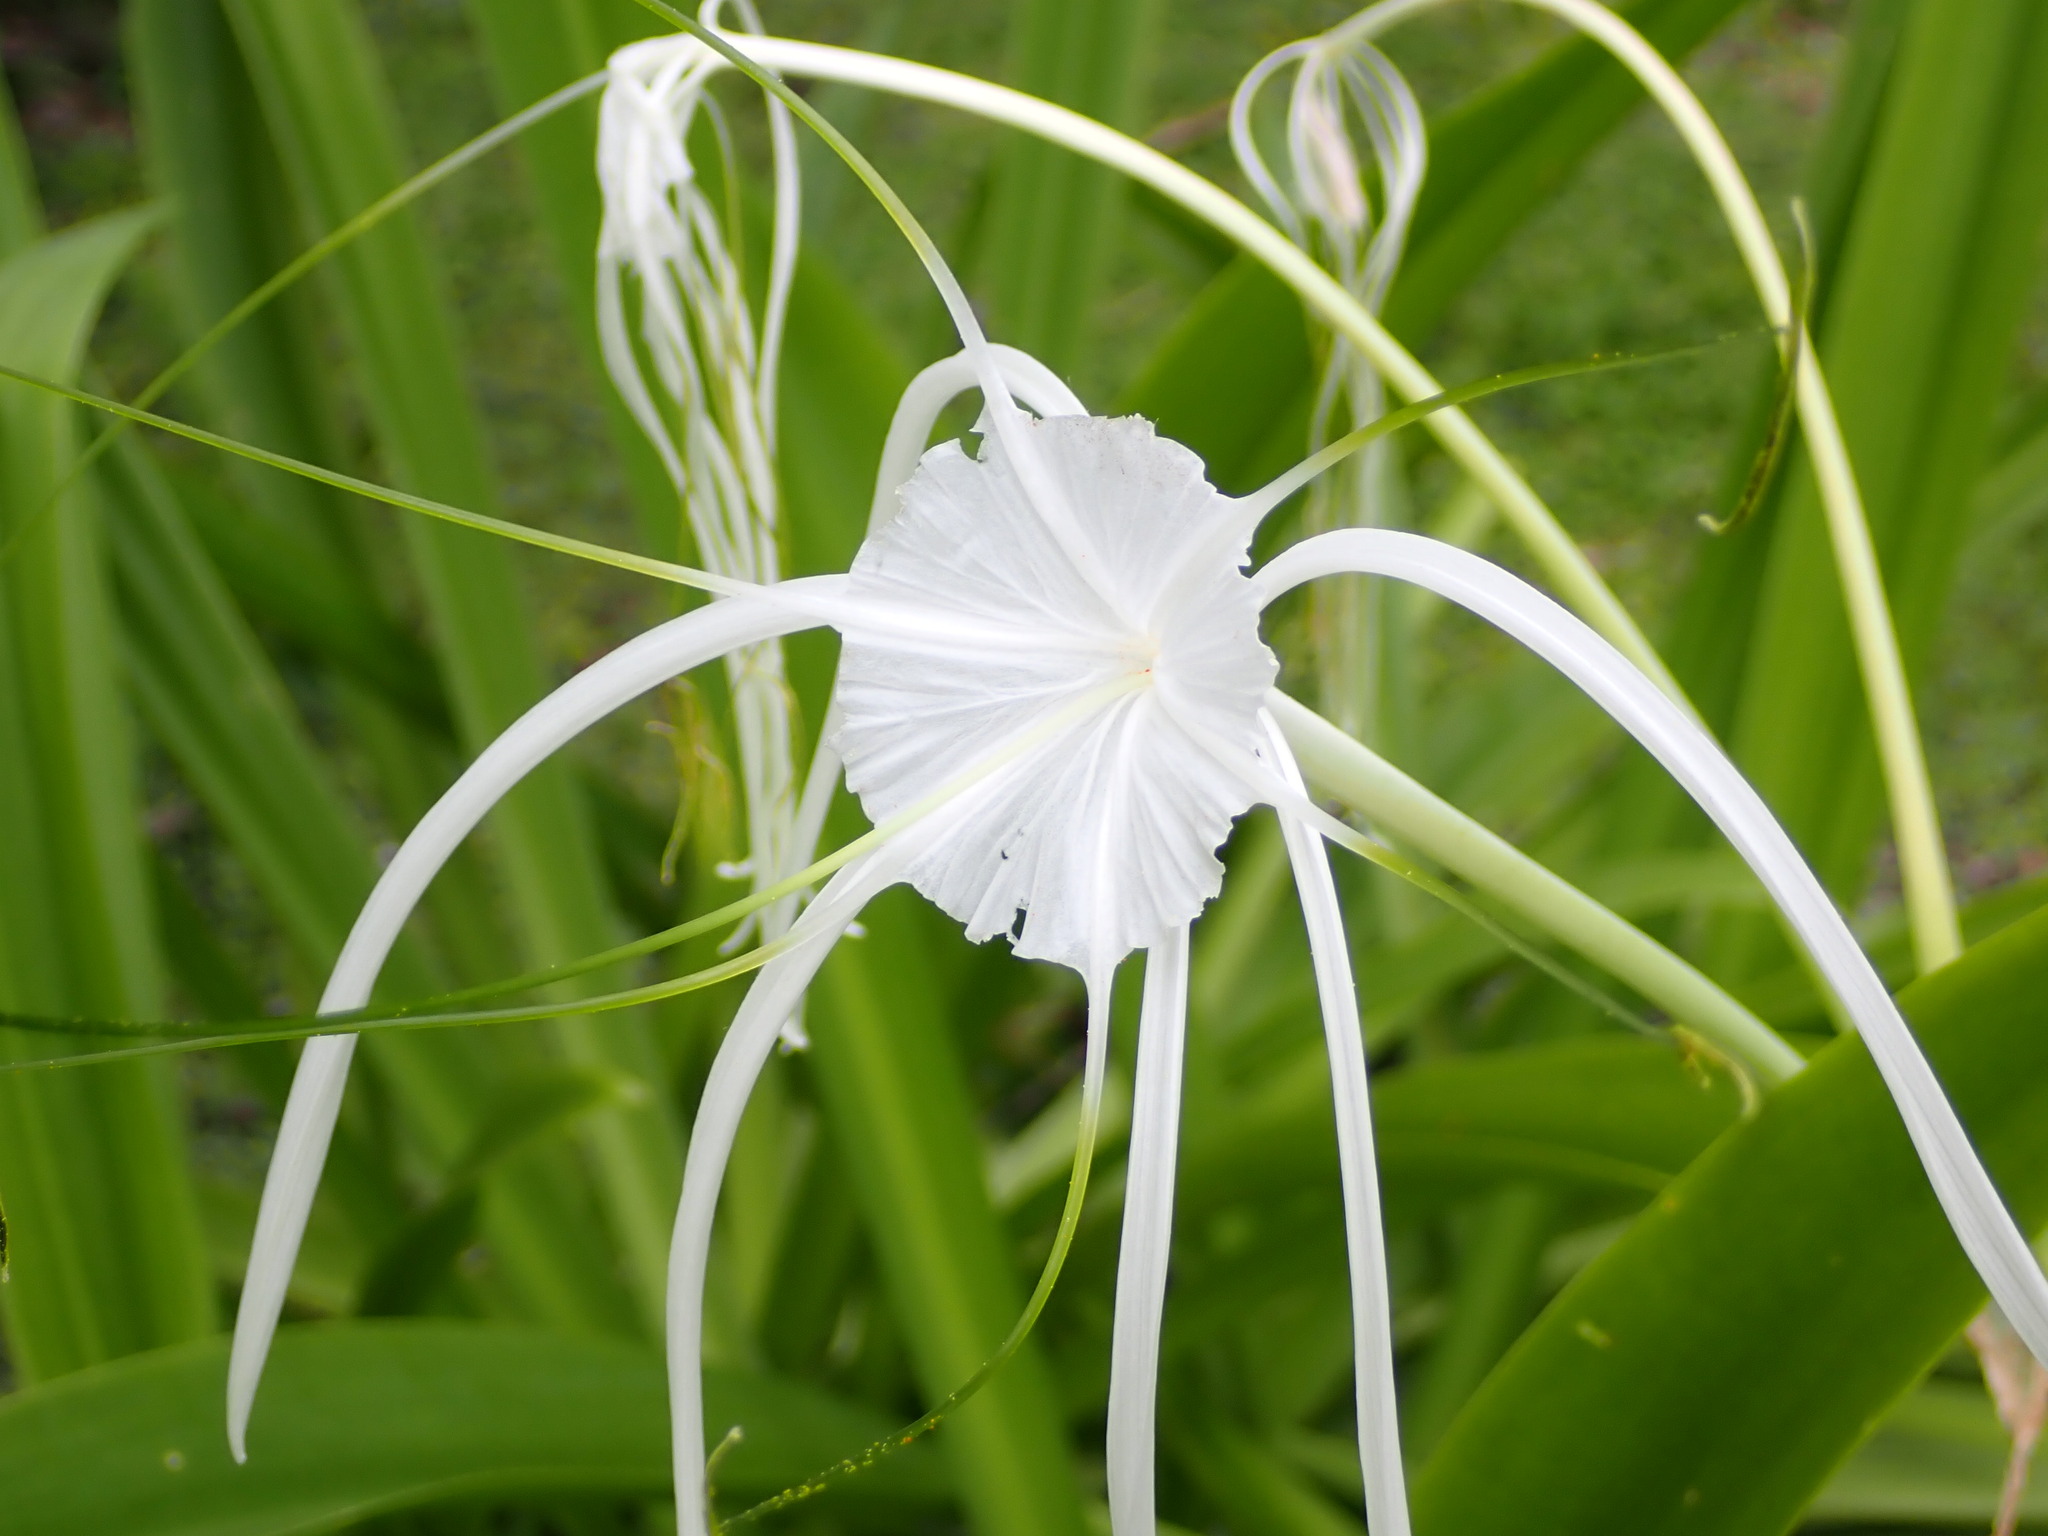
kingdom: Plantae
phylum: Tracheophyta
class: Liliopsida
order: Asparagales
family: Amaryllidaceae
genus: Hymenocallis
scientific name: Hymenocallis littoralis
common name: Beach spiderlily
